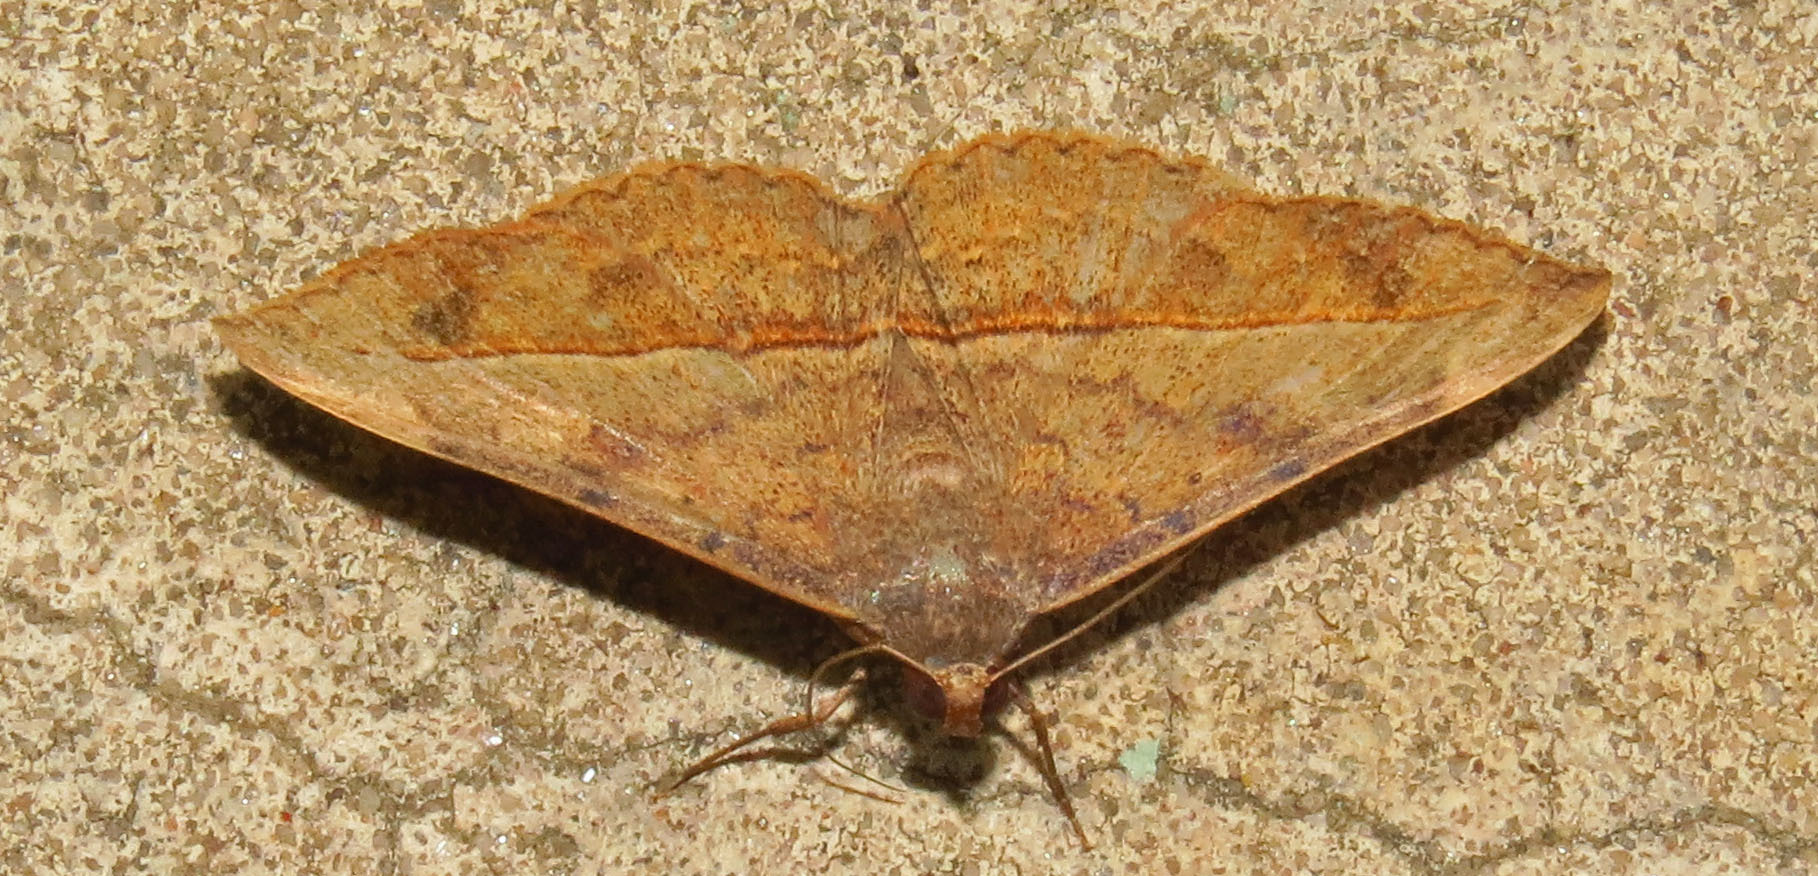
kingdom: Animalia
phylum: Arthropoda
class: Insecta
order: Lepidoptera
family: Erebidae
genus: Anticarsia
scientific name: Anticarsia gemmatalis
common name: Cutworm moth
